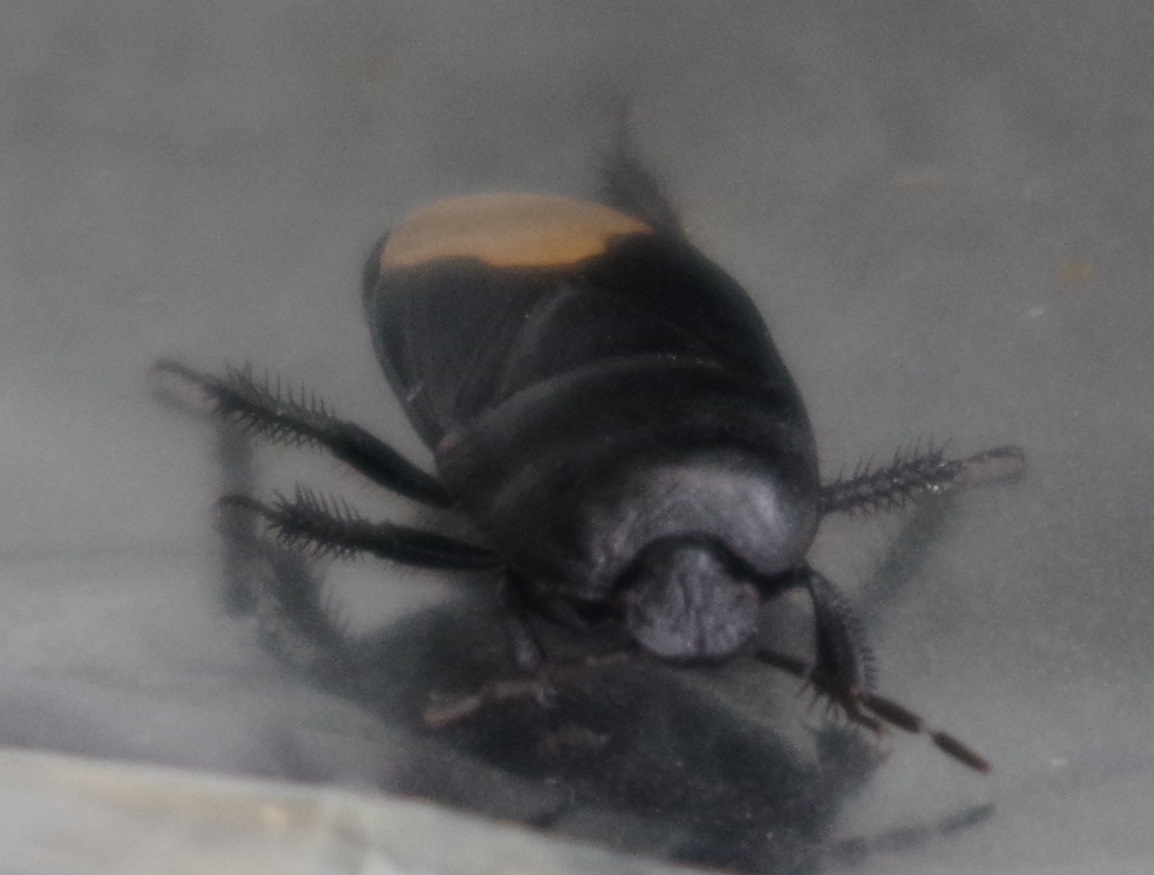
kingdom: Animalia
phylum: Arthropoda
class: Insecta
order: Hemiptera
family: Cydnidae
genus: Cydnus
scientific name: Cydnus aterrimus
